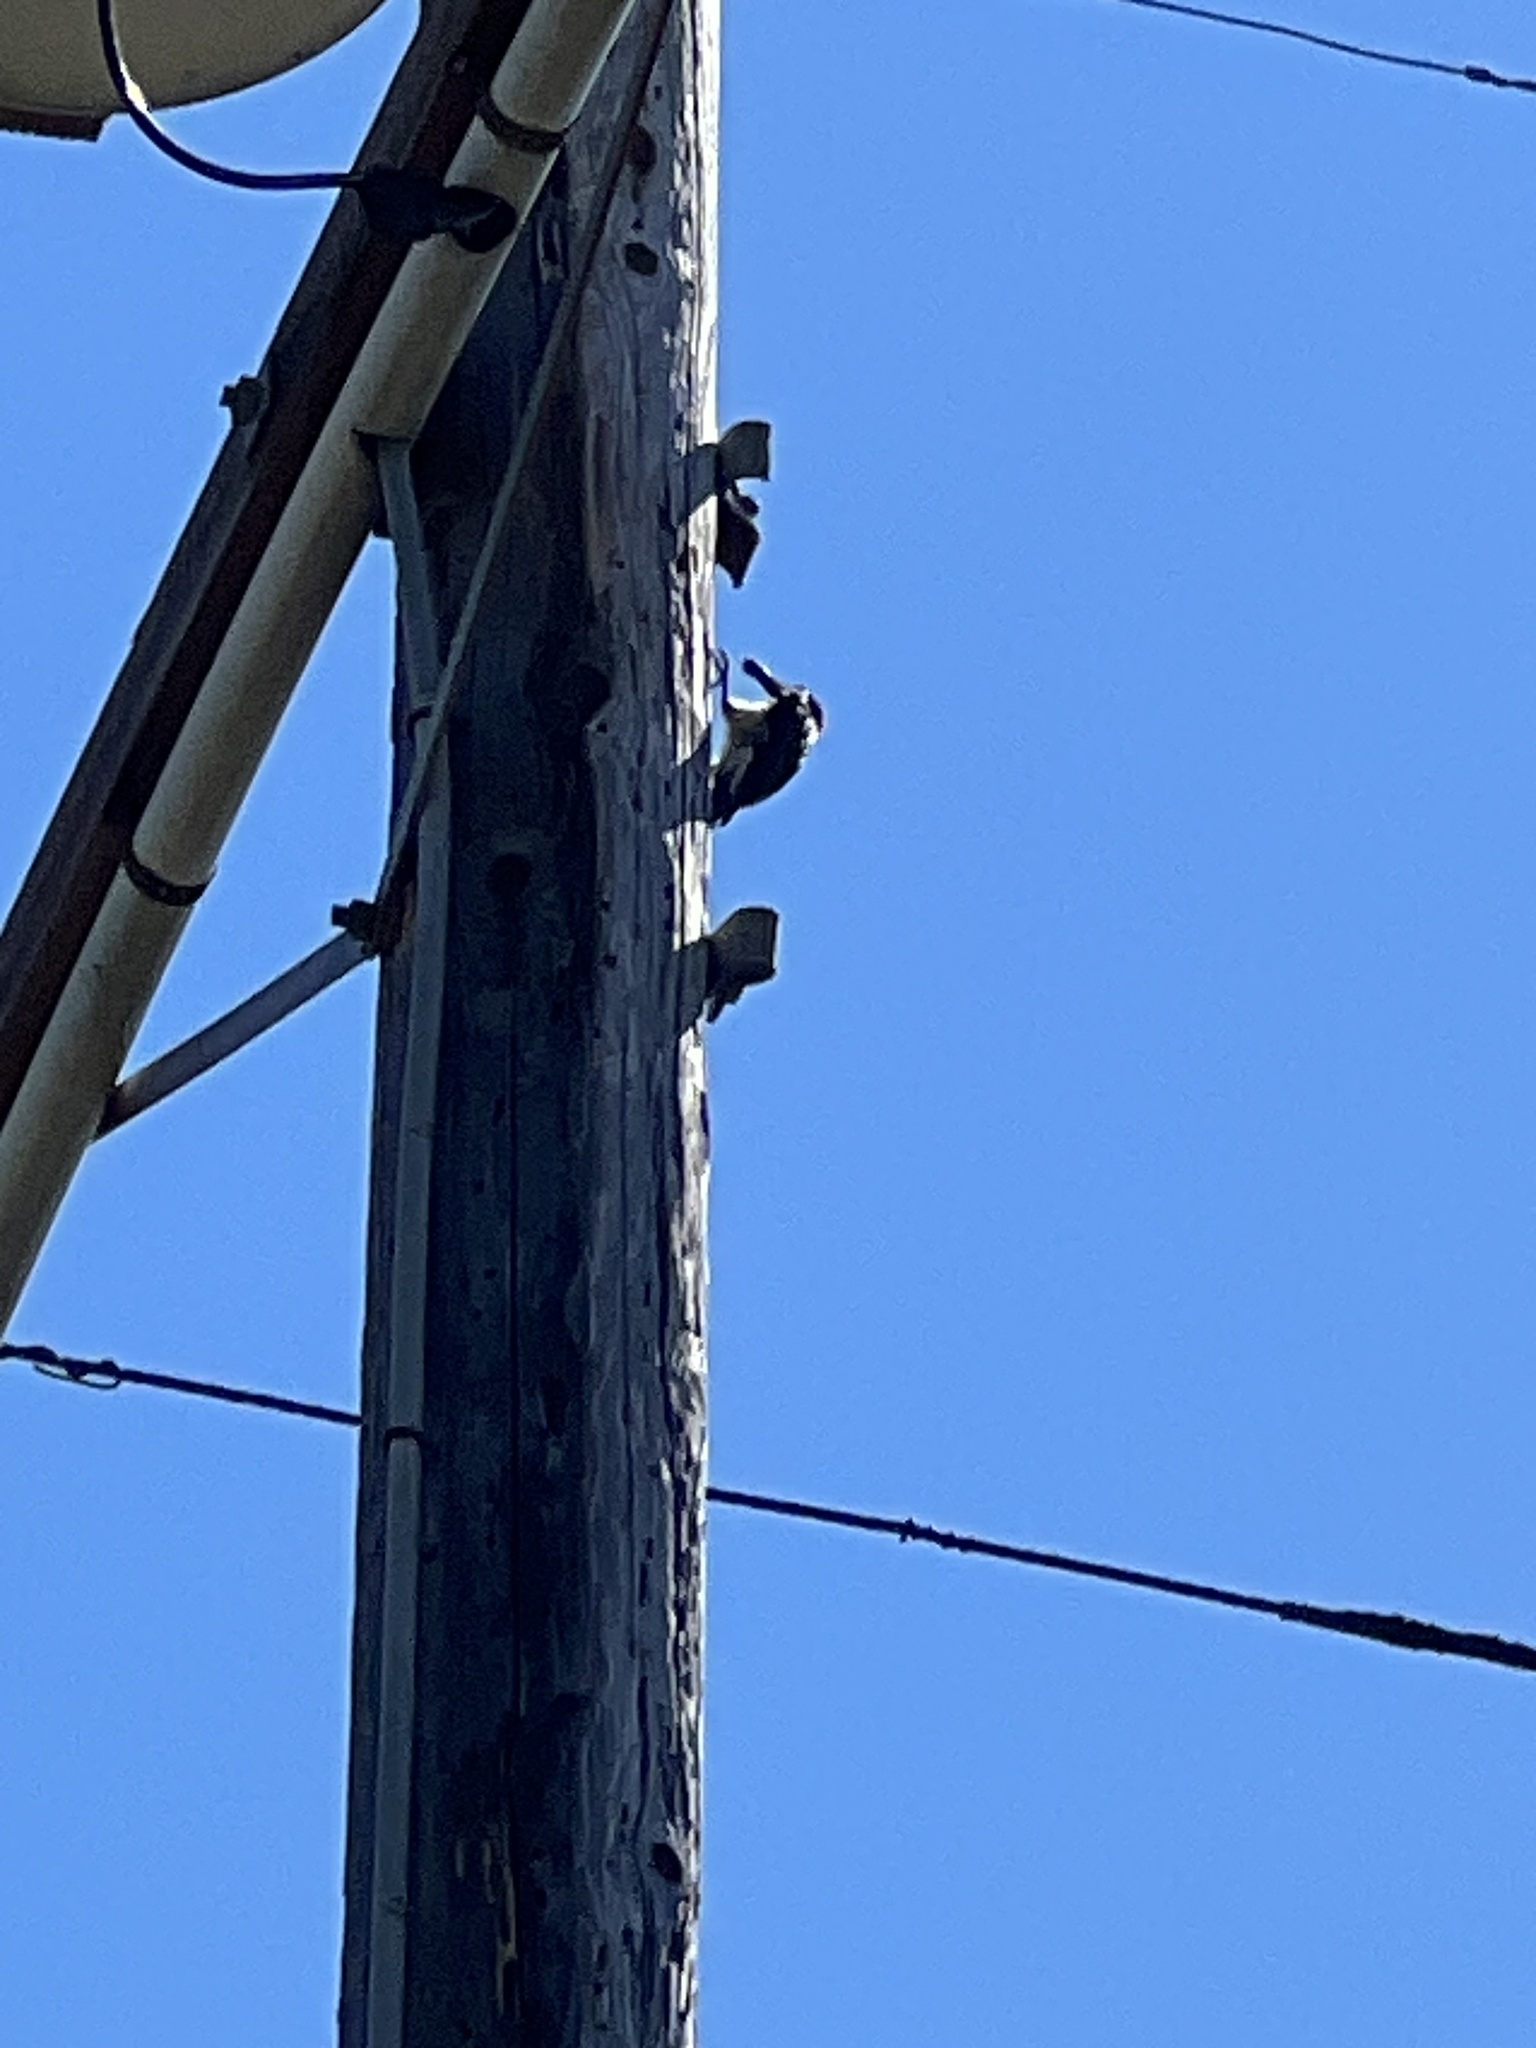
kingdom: Animalia
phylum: Chordata
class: Aves
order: Piciformes
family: Picidae
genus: Melanerpes
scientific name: Melanerpes formicivorus
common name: Acorn woodpecker
